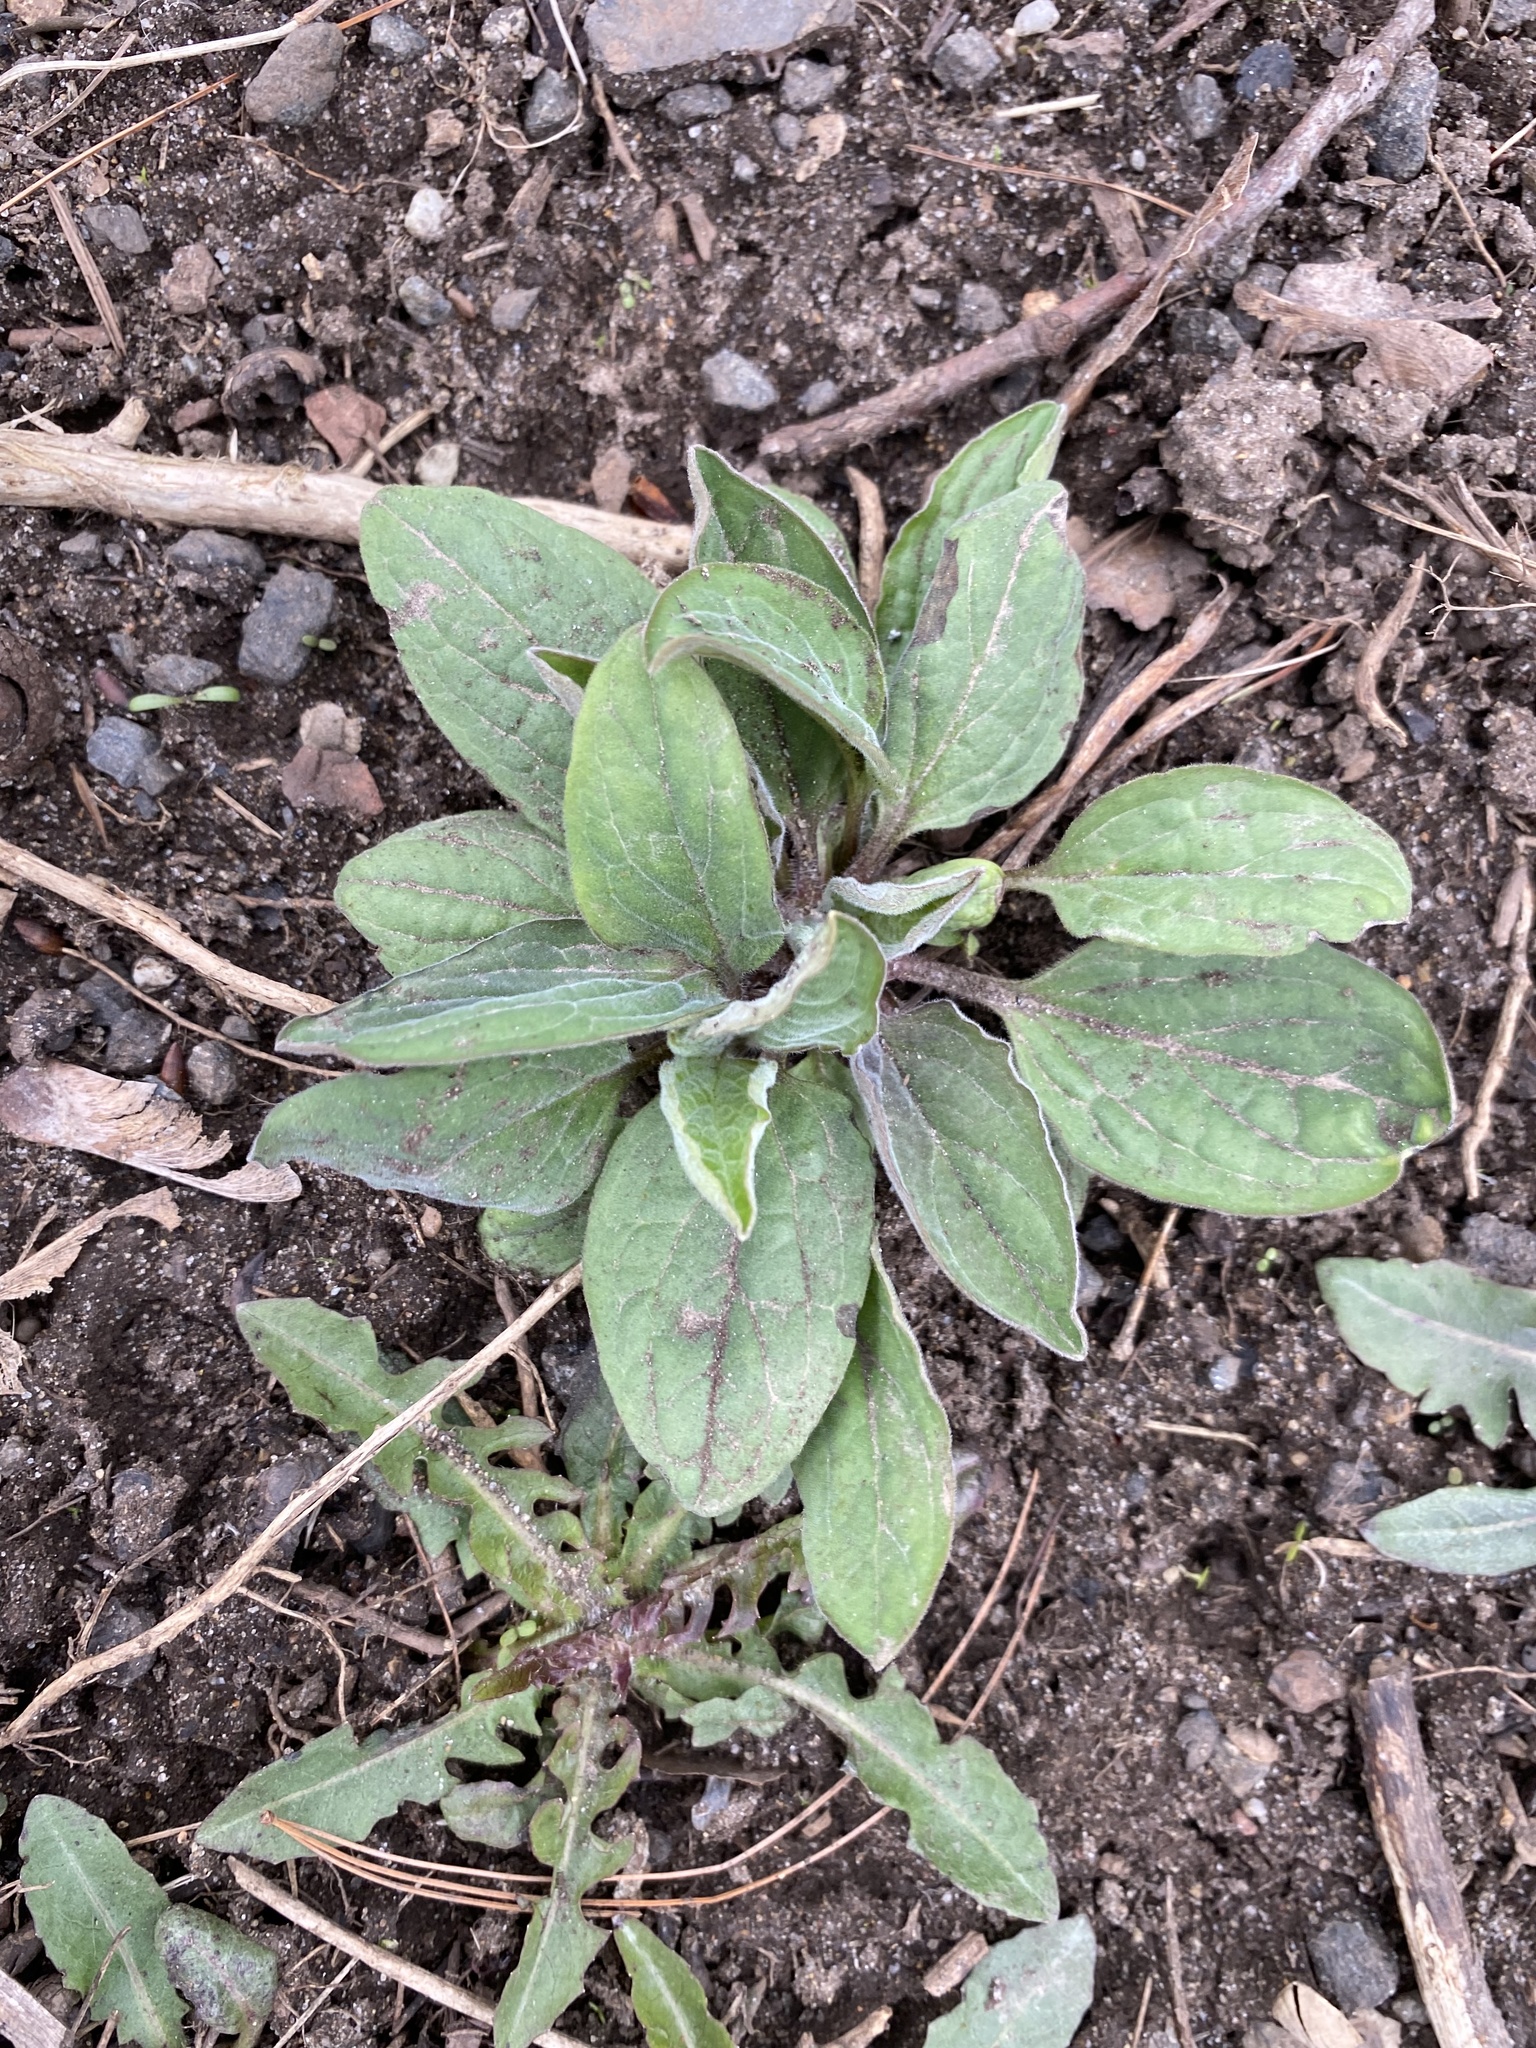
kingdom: Plantae
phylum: Tracheophyta
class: Magnoliopsida
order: Boraginales
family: Boraginaceae
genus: Hackelia
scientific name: Hackelia virginiana
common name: Beggar's-lice
